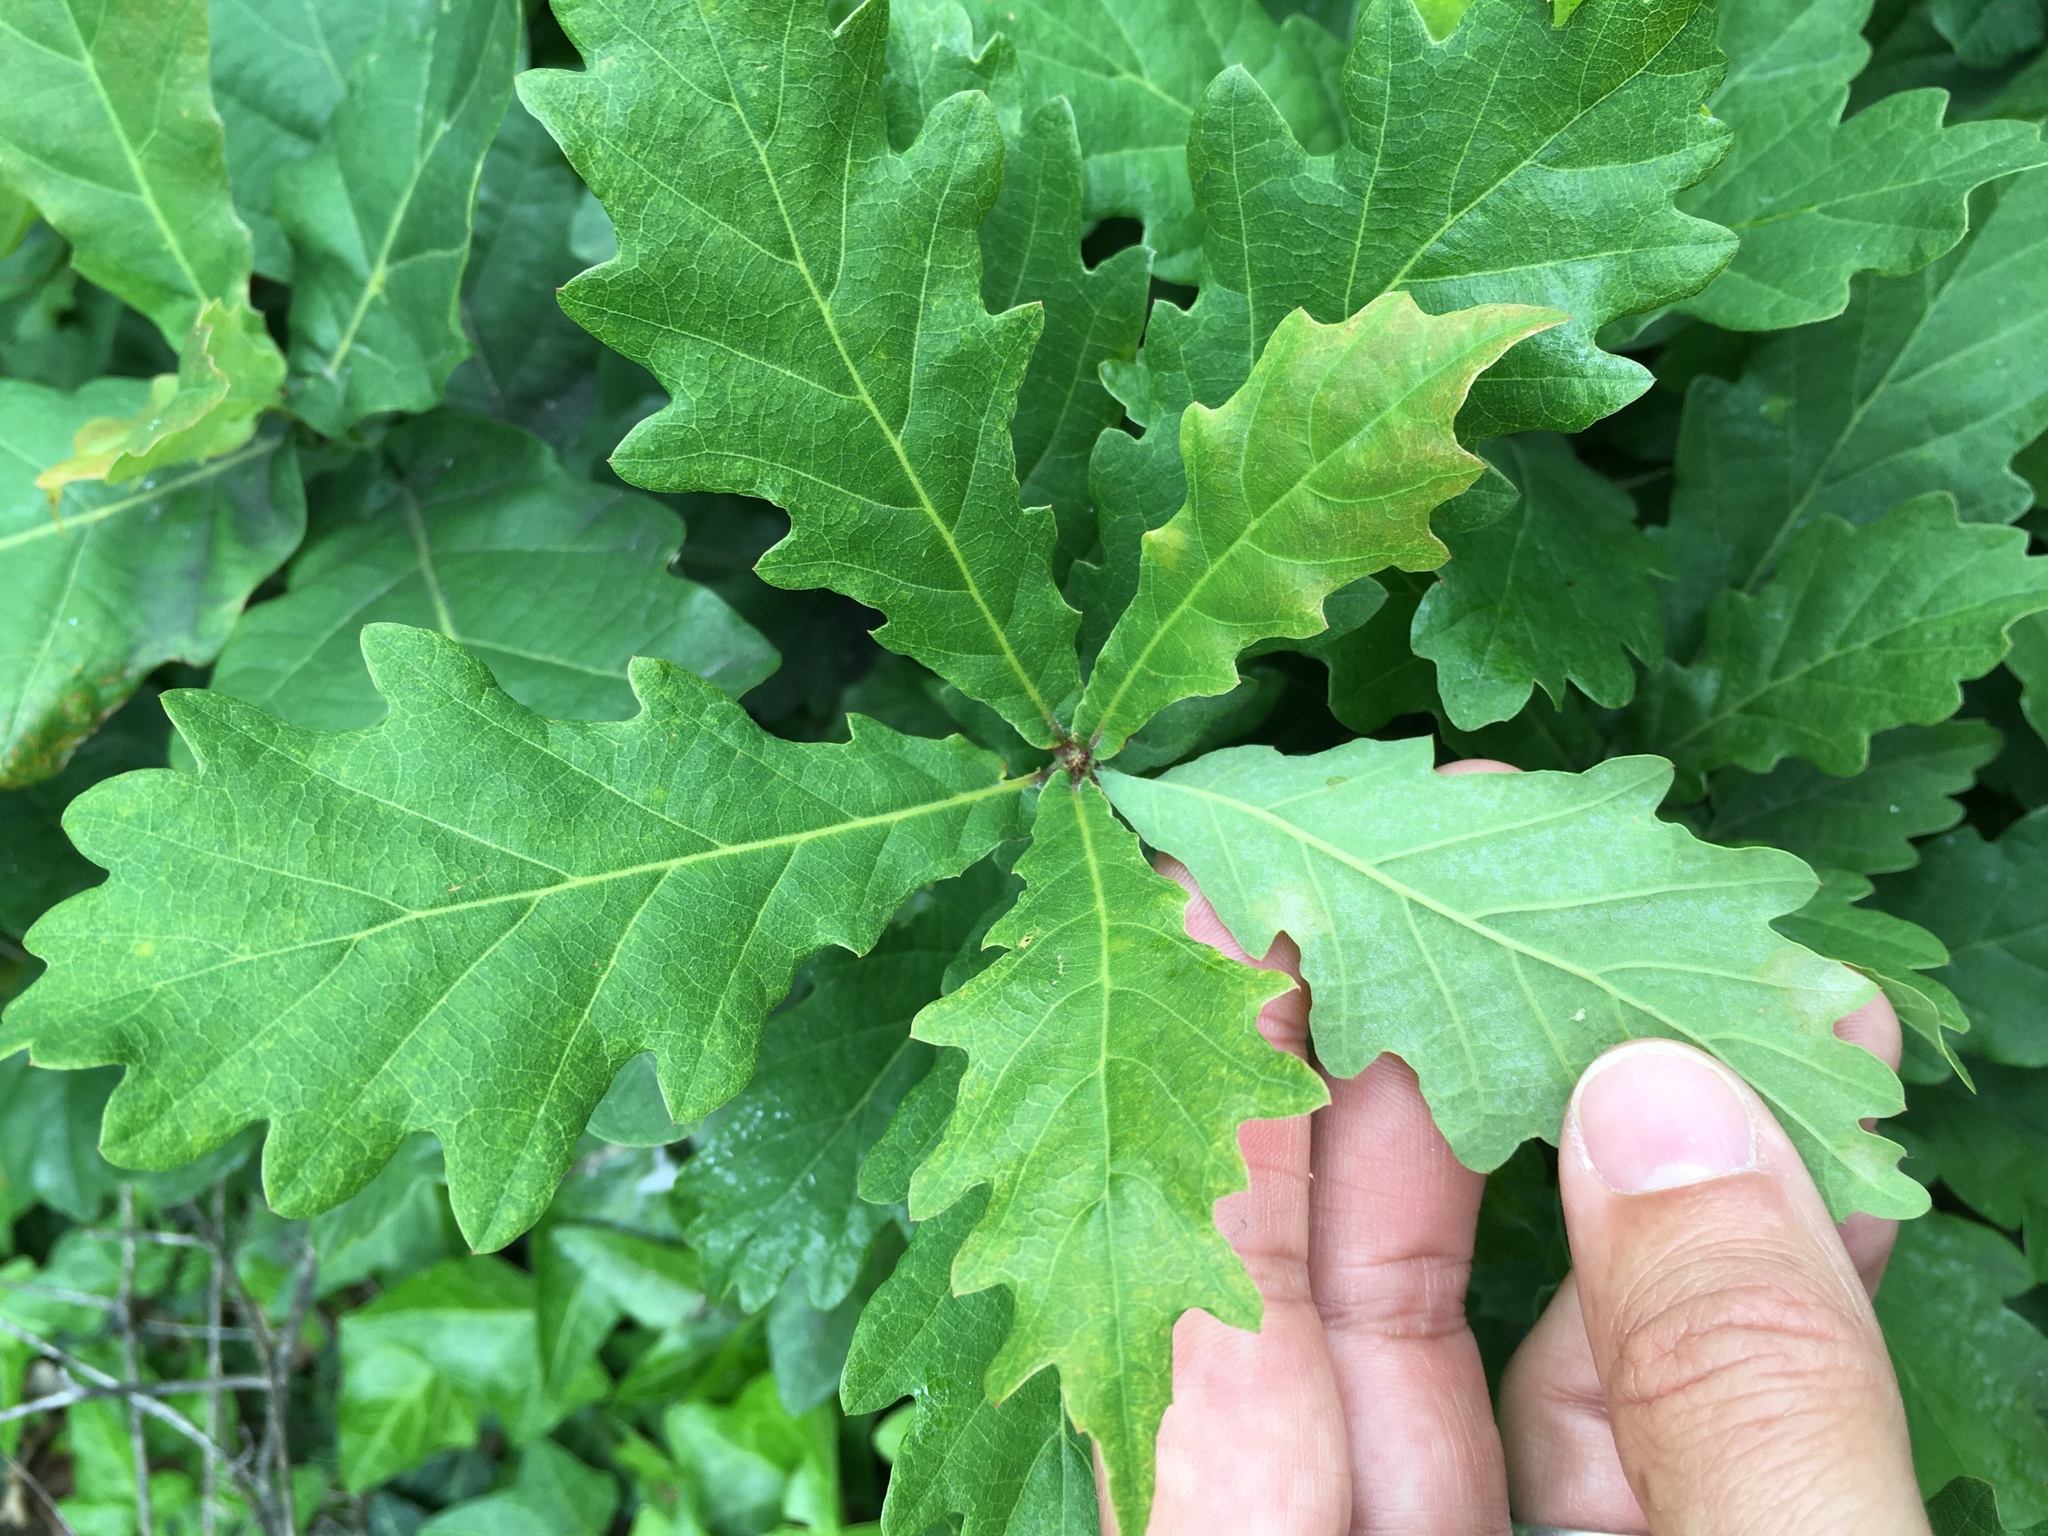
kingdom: Plantae
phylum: Tracheophyta
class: Magnoliopsida
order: Fagales
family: Fagaceae
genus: Quercus
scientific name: Quercus robur
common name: Pedunculate oak
